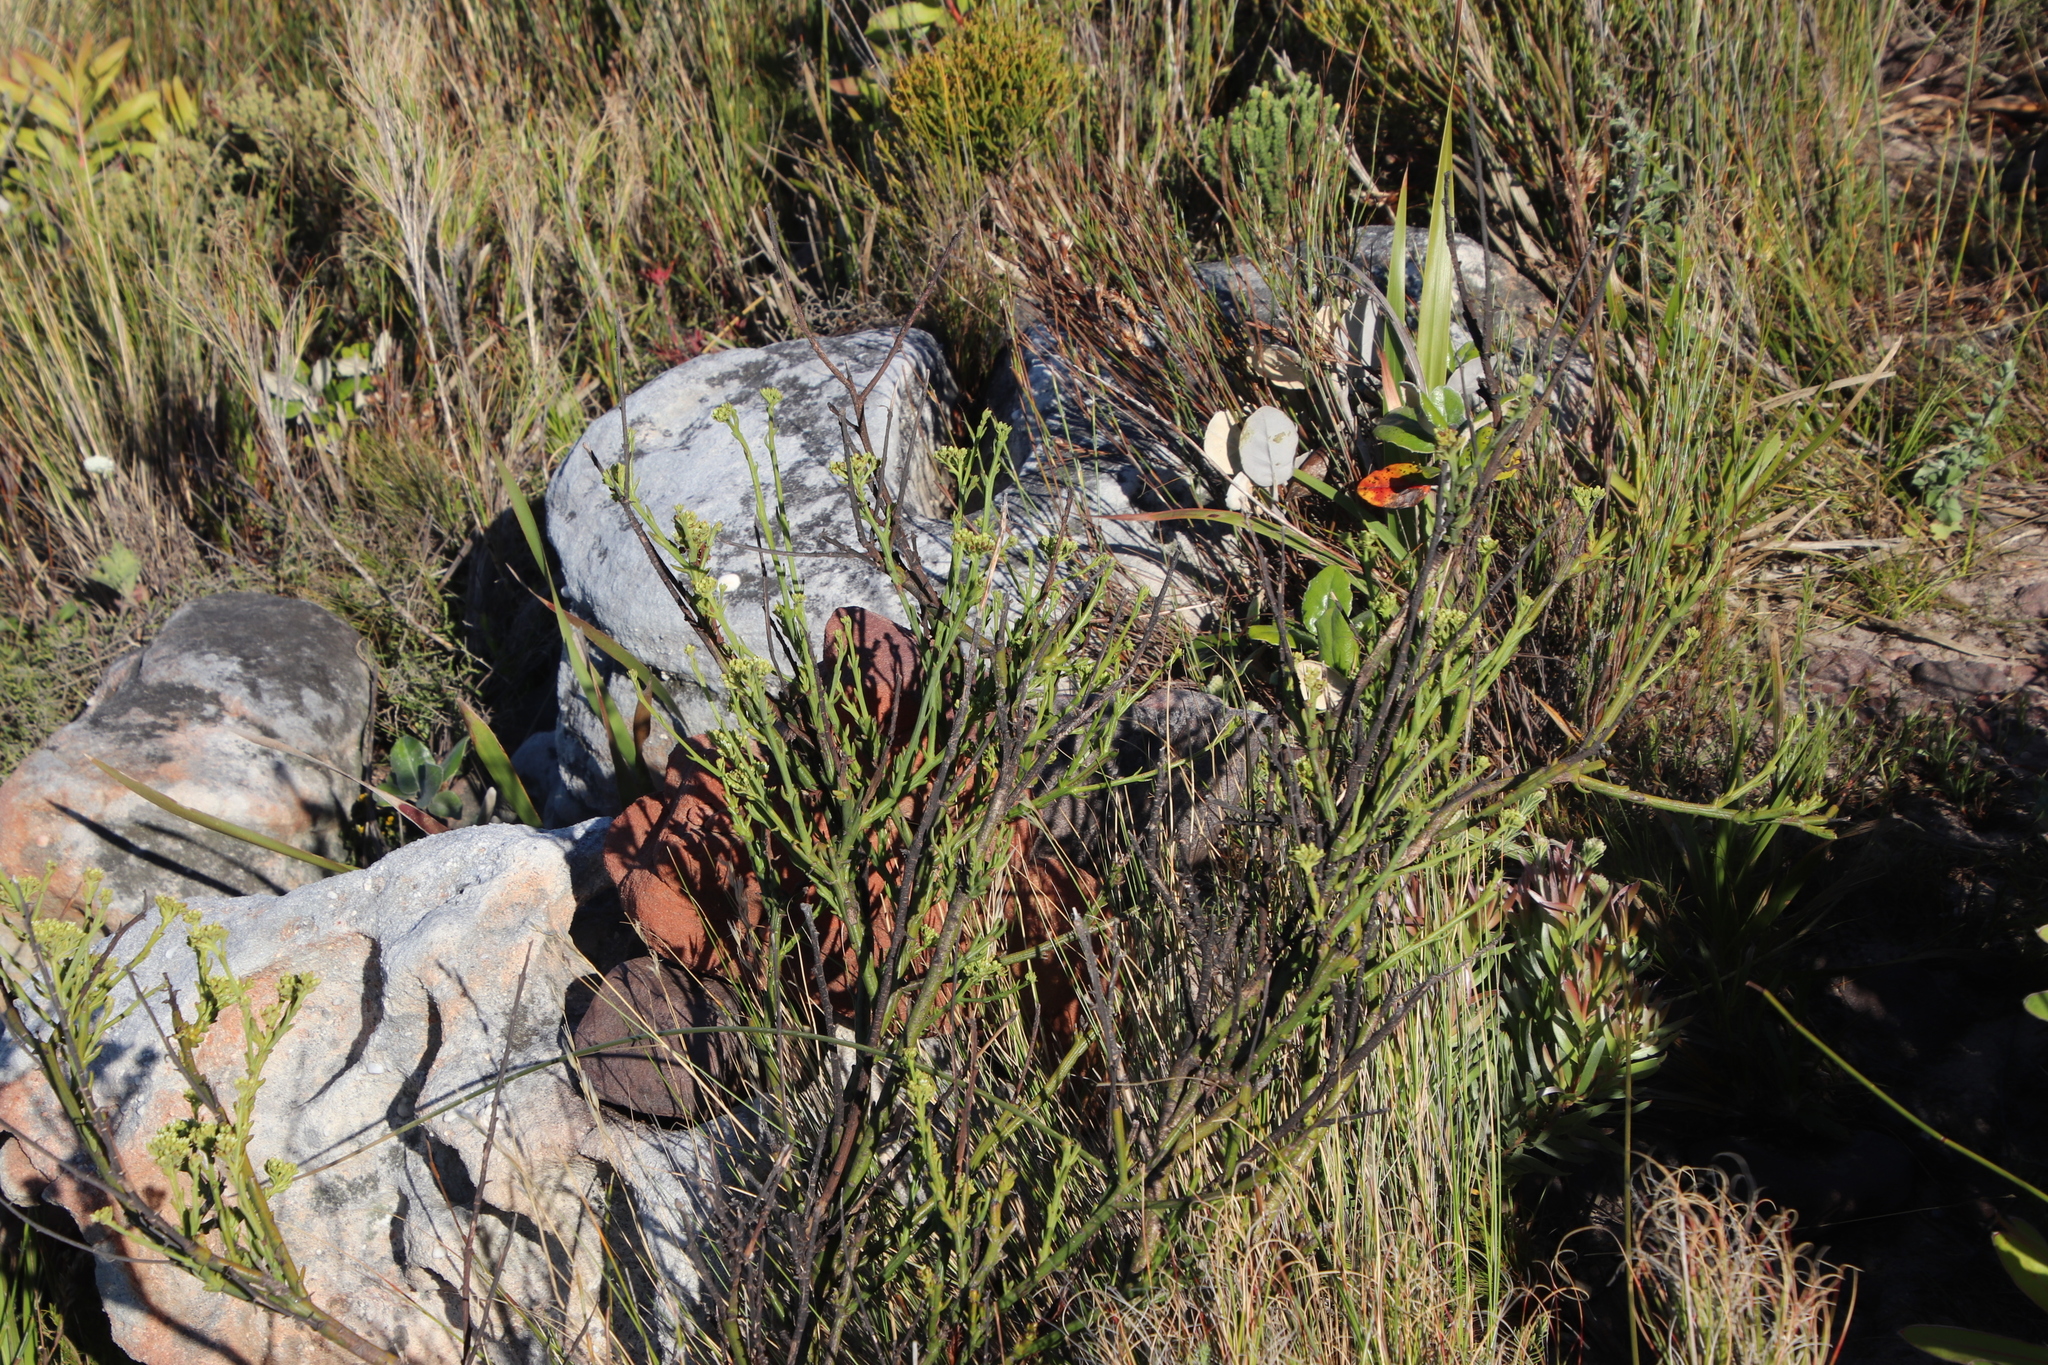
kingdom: Plantae
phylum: Tracheophyta
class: Magnoliopsida
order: Santalales
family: Thesiaceae
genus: Thesium
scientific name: Thesium strictum
